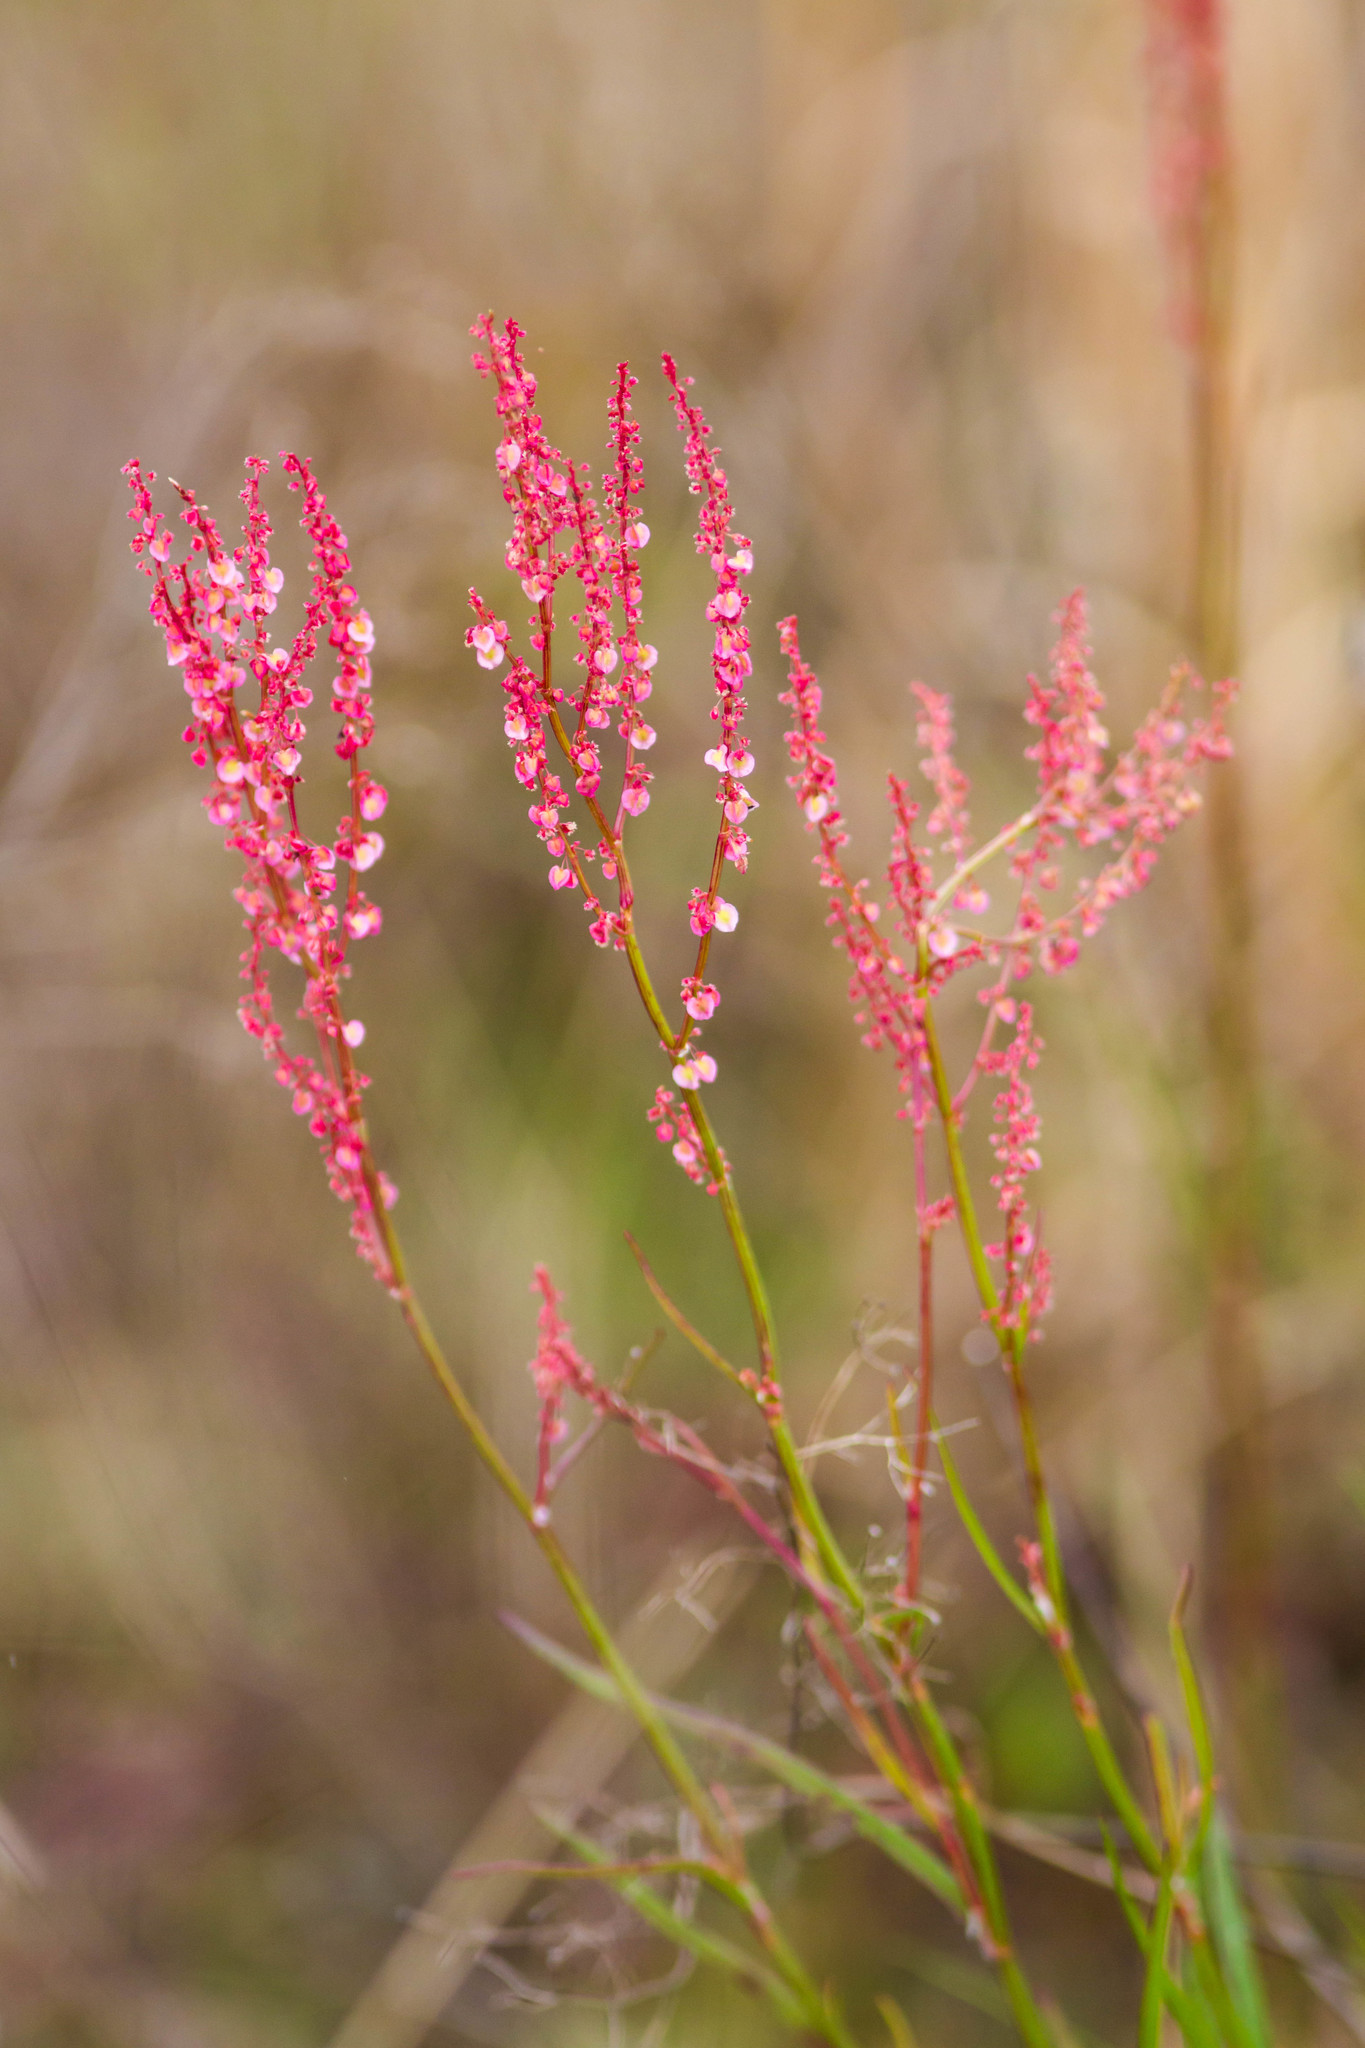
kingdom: Plantae
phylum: Tracheophyta
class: Magnoliopsida
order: Caryophyllales
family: Polygonaceae
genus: Rumex
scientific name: Rumex hastatulus
